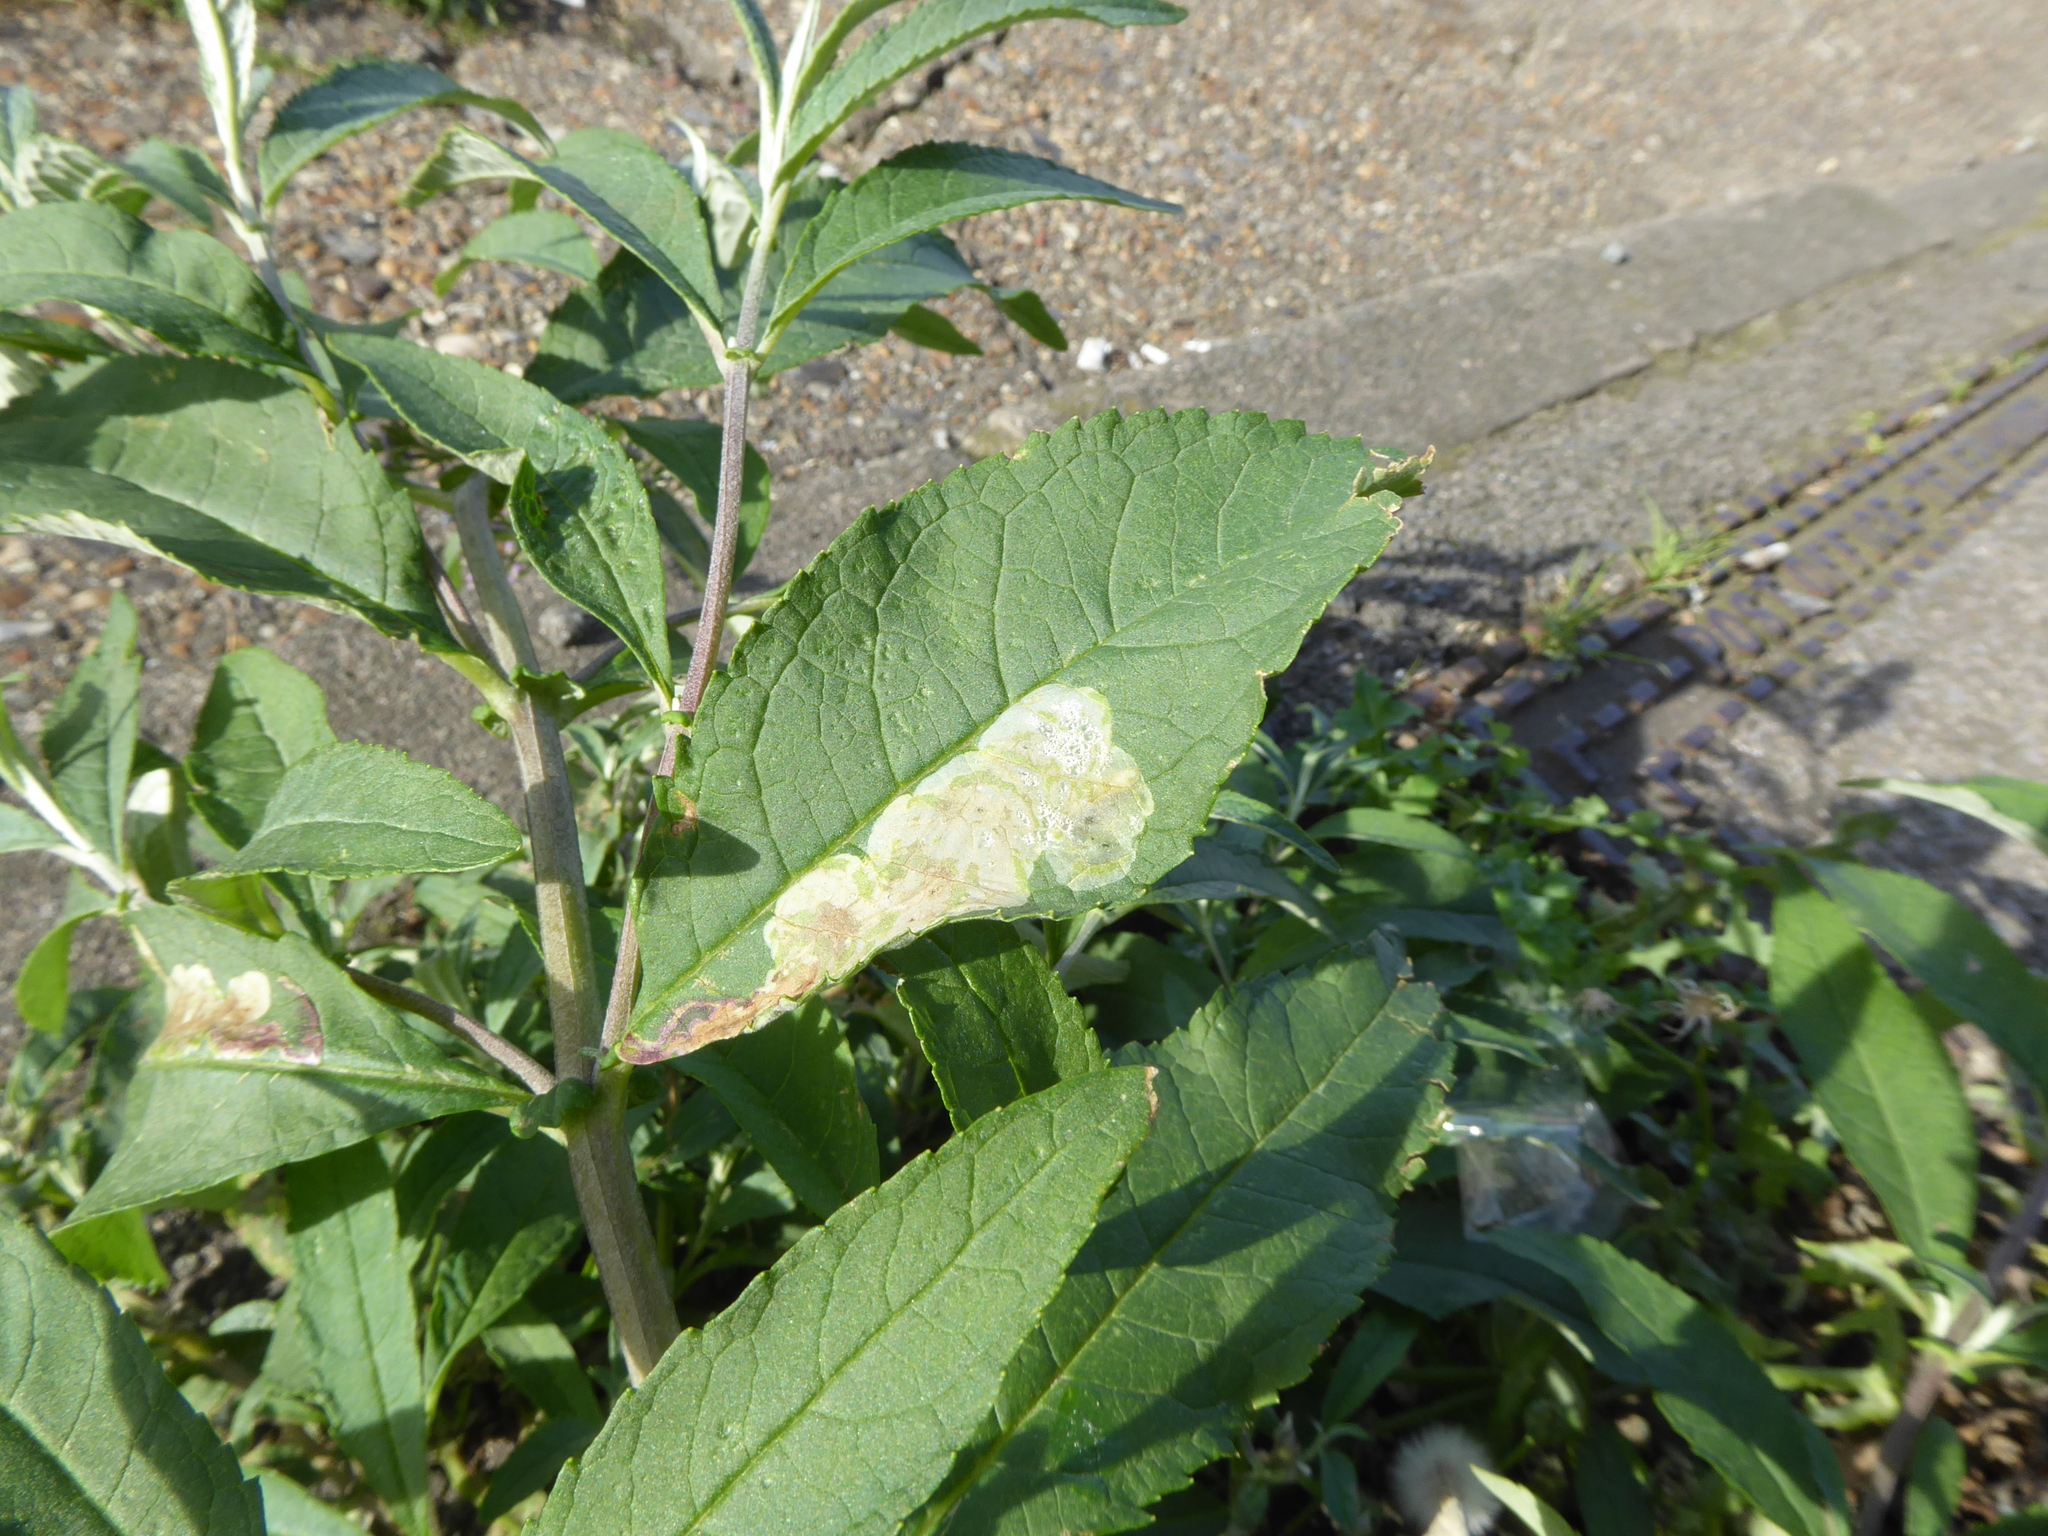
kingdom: Plantae
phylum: Tracheophyta
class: Magnoliopsida
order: Lamiales
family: Scrophulariaceae
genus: Buddleja
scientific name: Buddleja davidii
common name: Butterfly-bush
